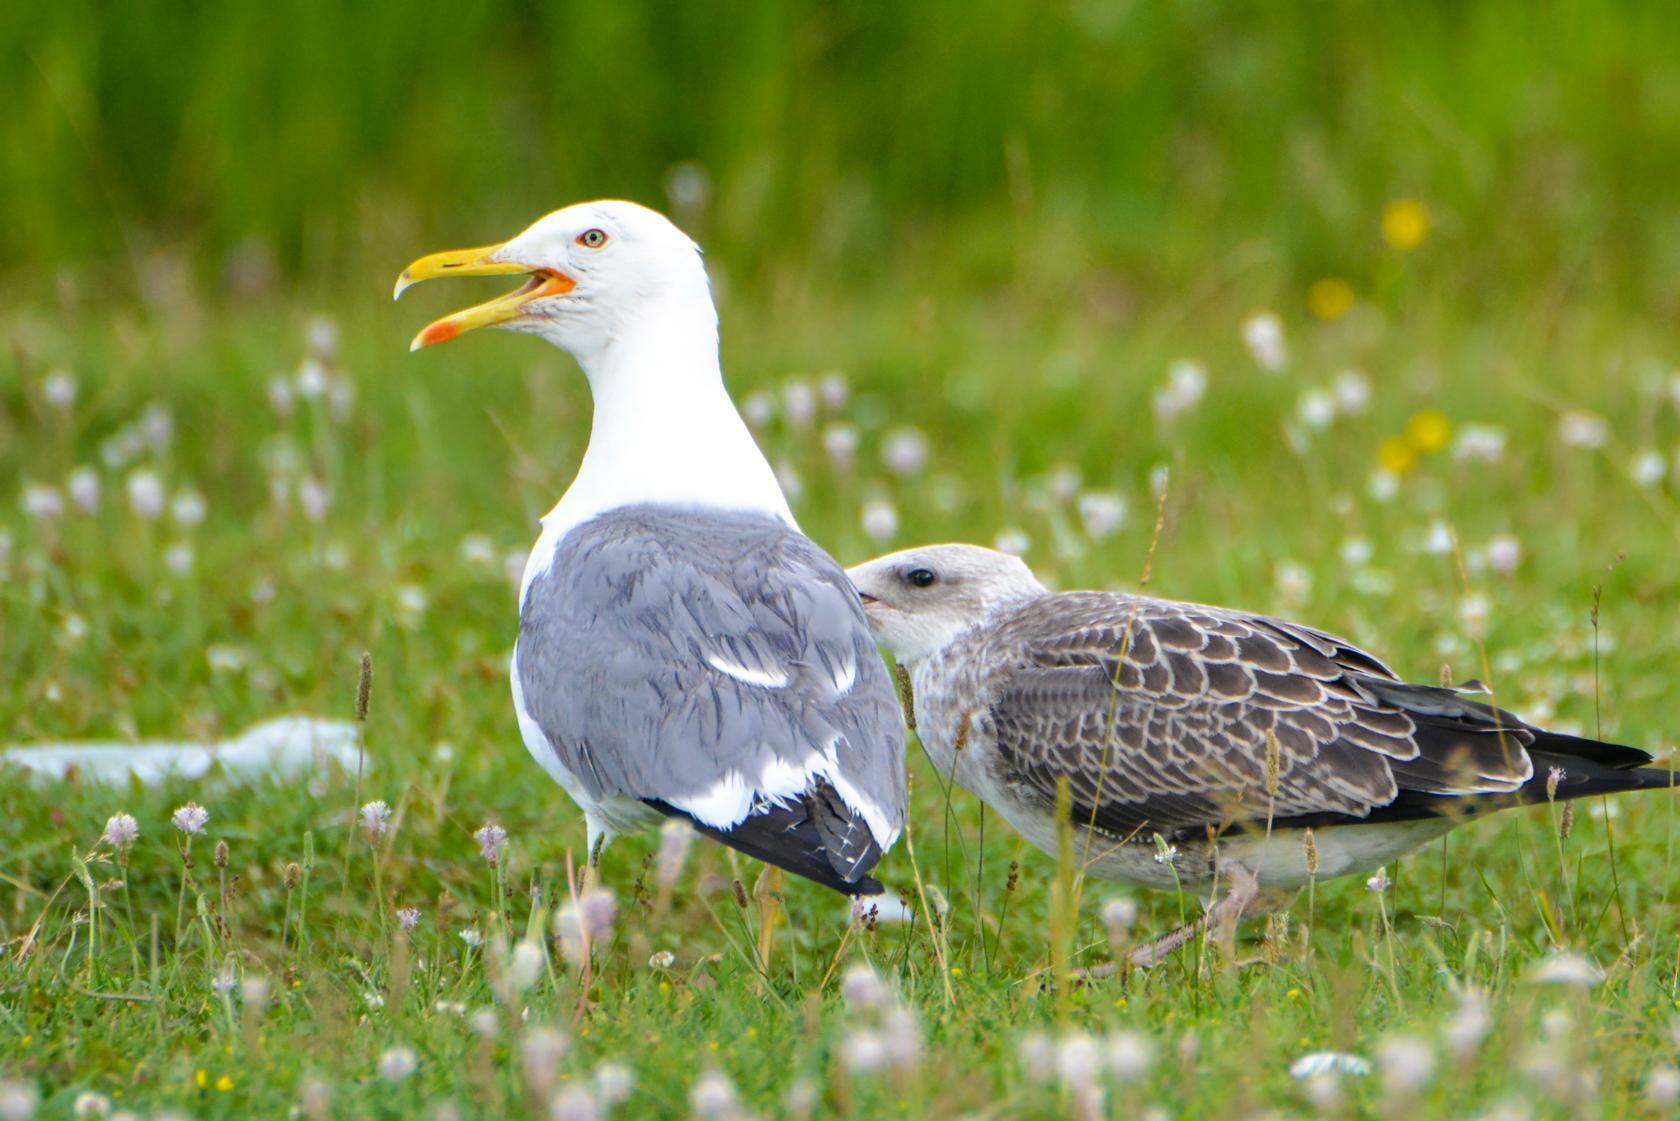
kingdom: Animalia
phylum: Chordata
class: Aves
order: Charadriiformes
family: Laridae
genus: Larus
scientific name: Larus fuscus
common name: Lesser black-backed gull
